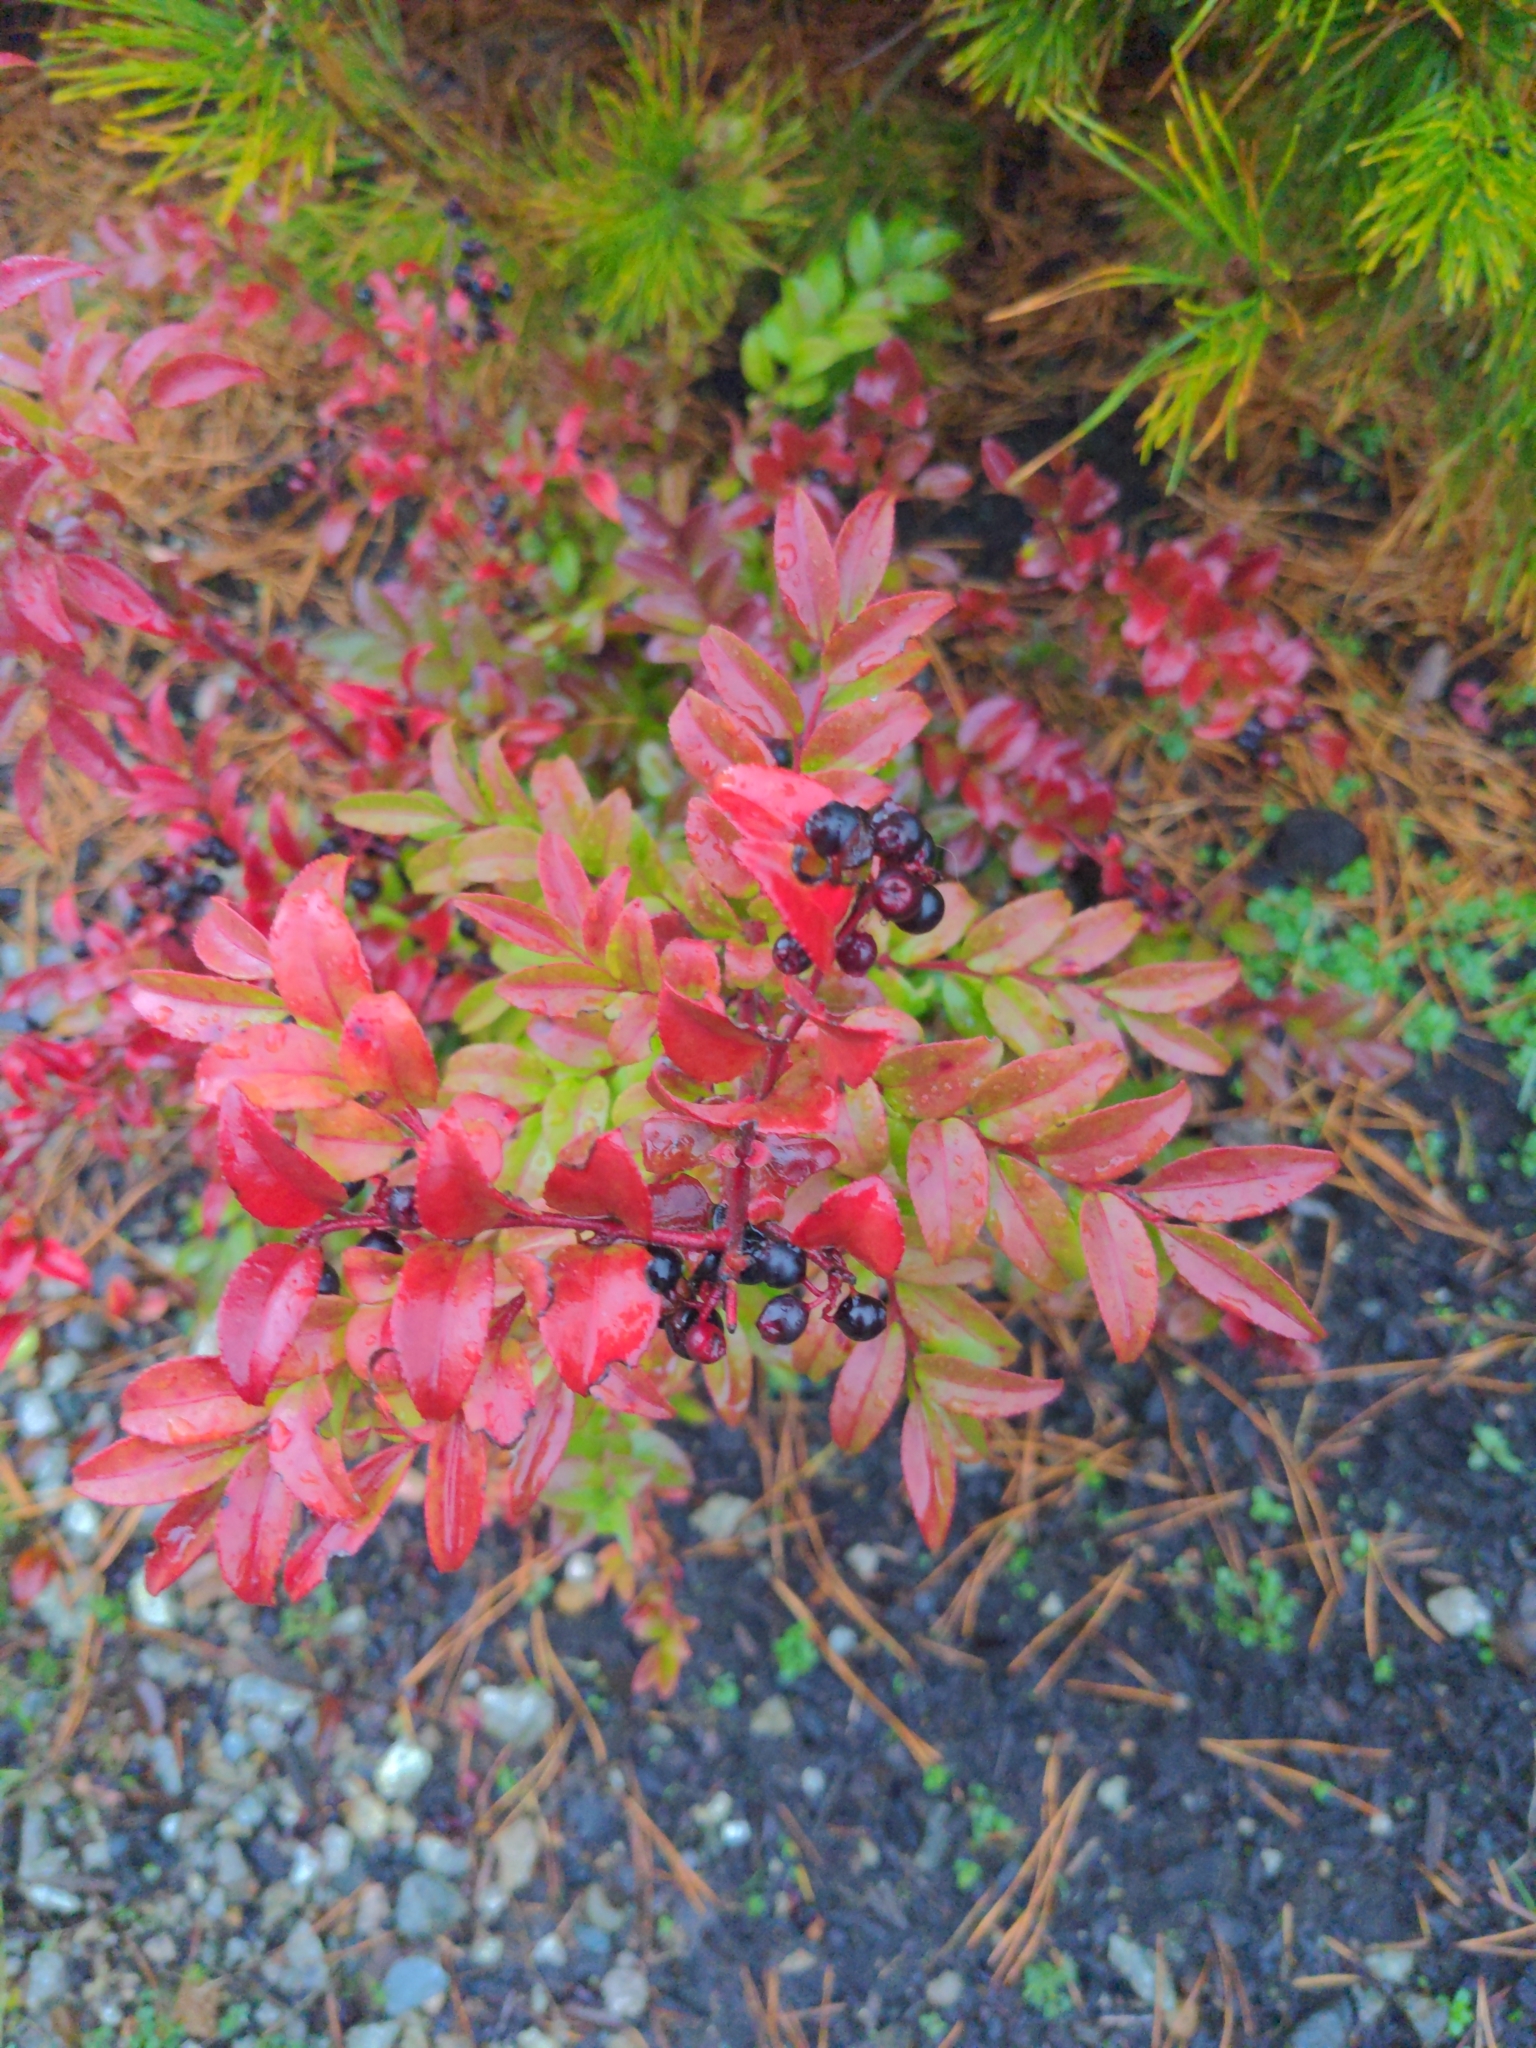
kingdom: Plantae
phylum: Tracheophyta
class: Magnoliopsida
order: Ericales
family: Ericaceae
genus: Vaccinium
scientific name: Vaccinium ovatum
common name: California-huckleberry
